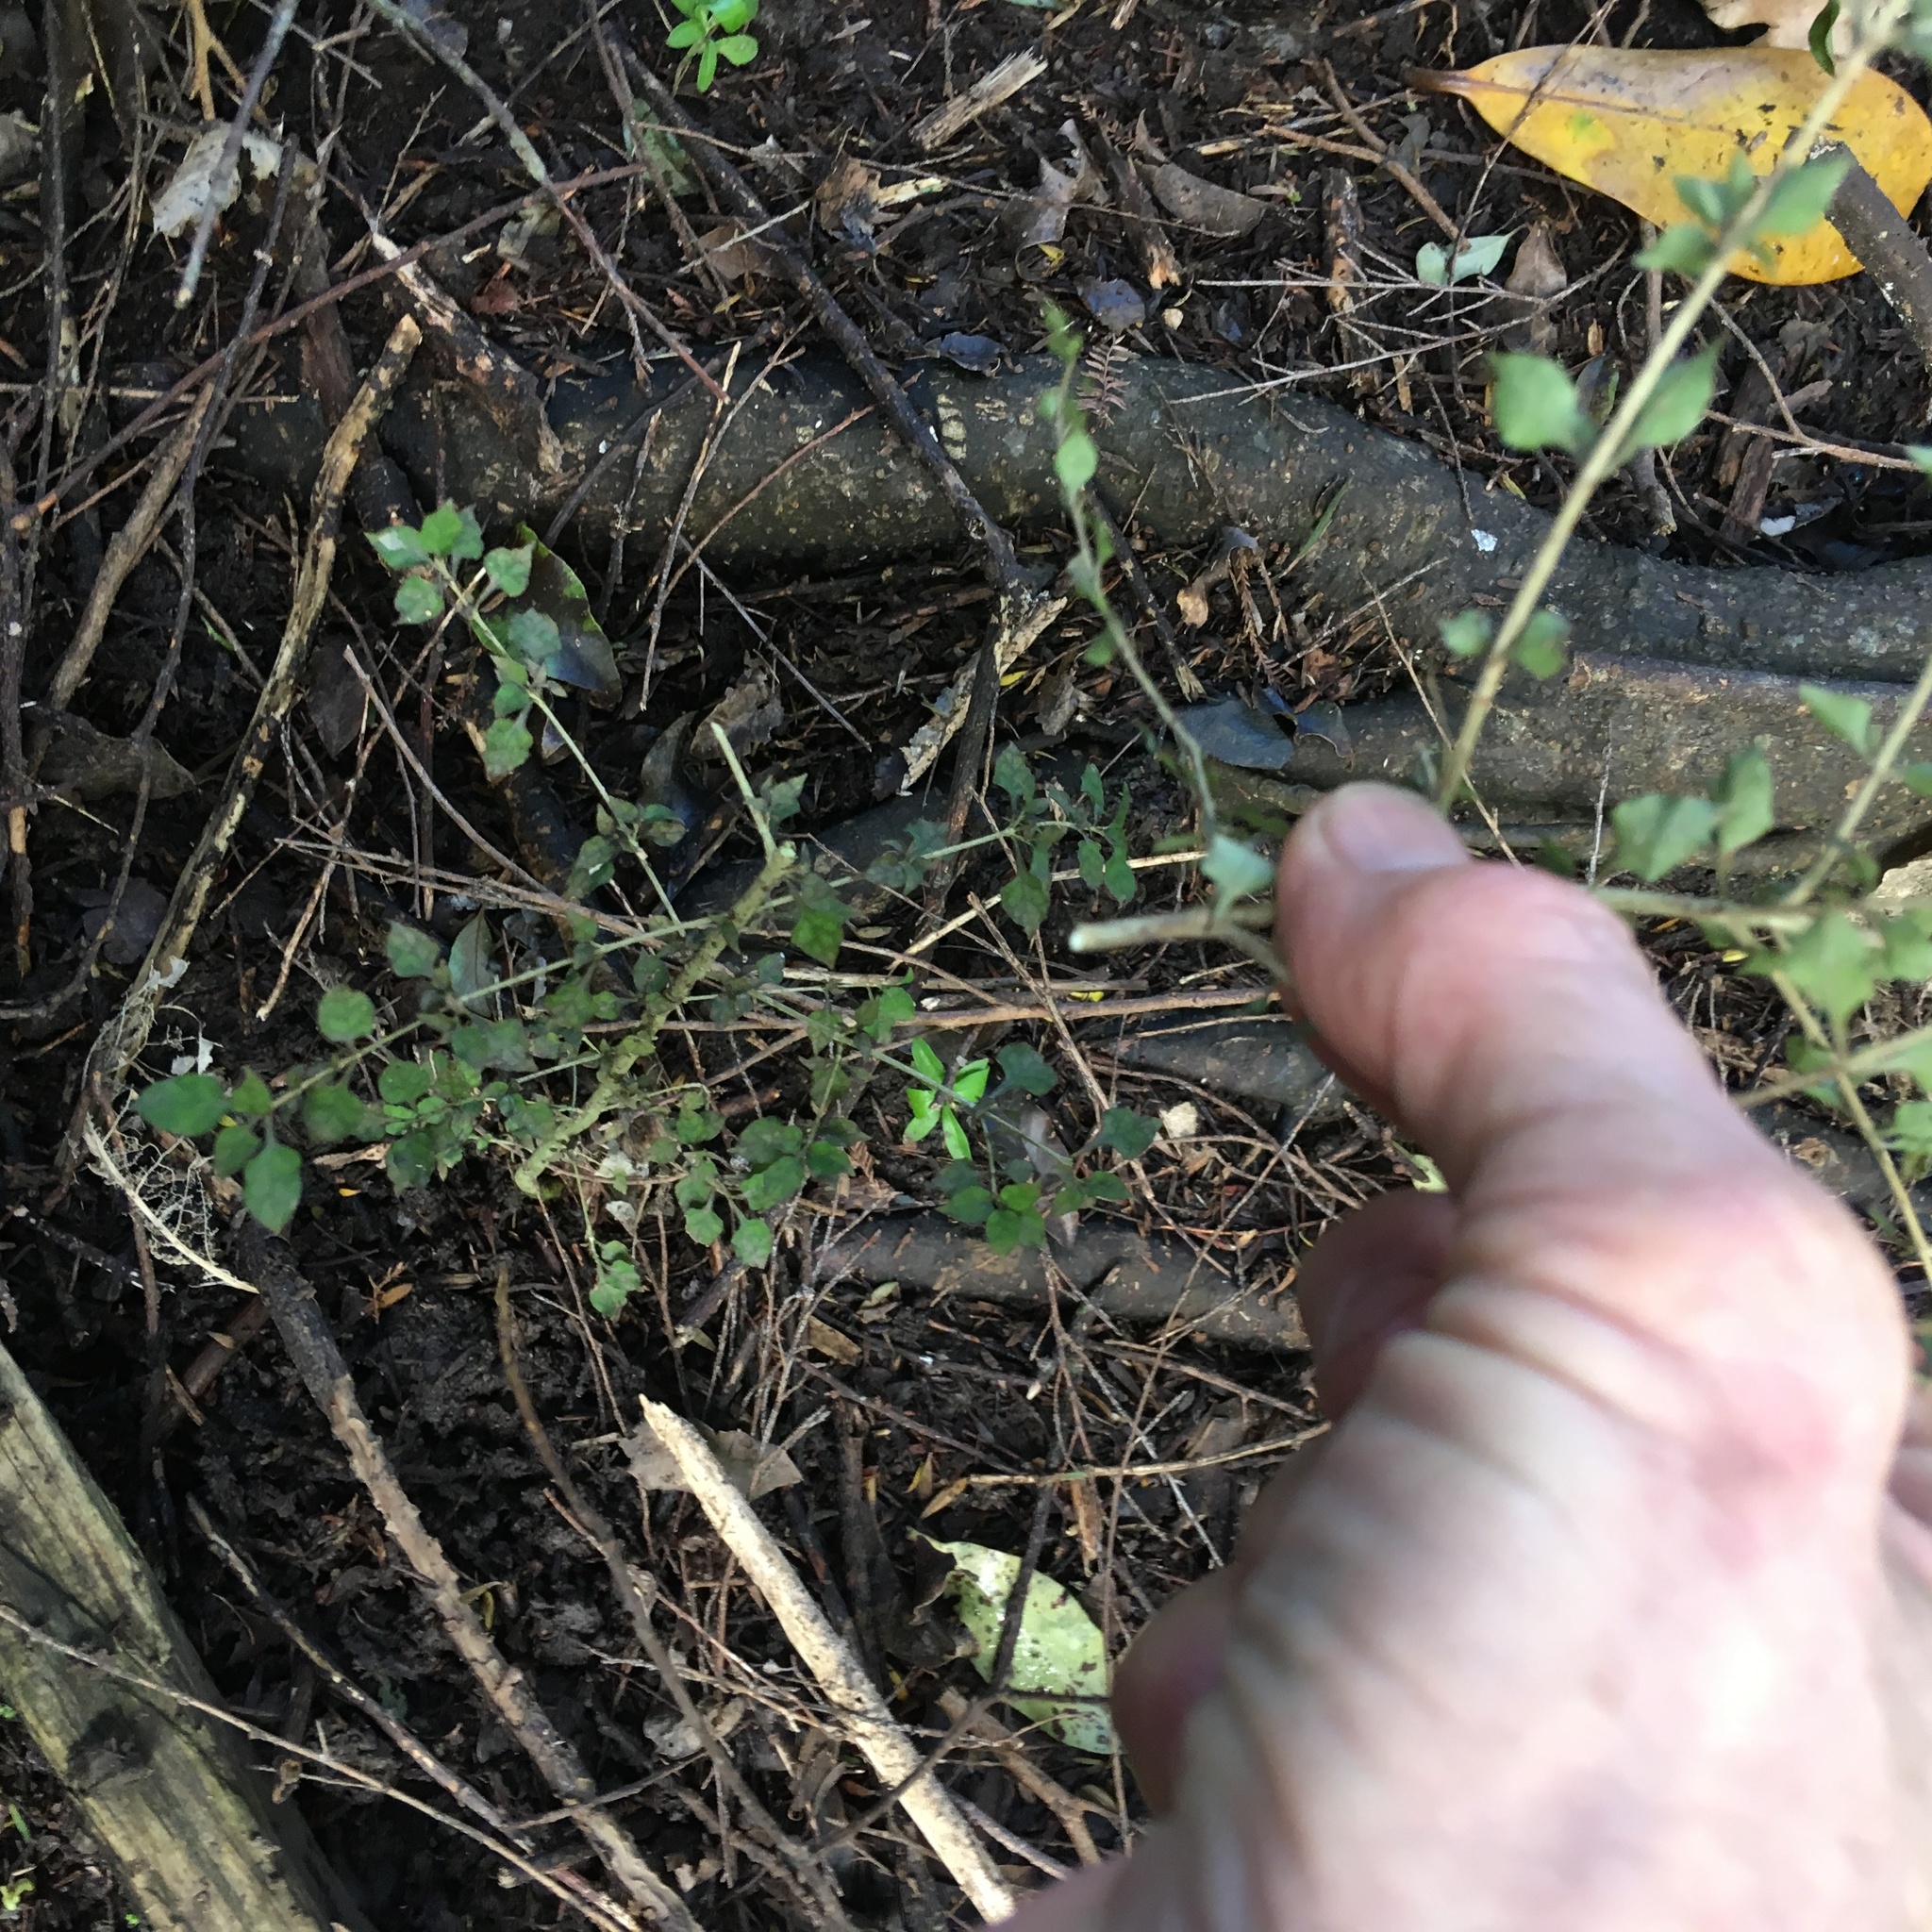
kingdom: Plantae
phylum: Tracheophyta
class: Magnoliopsida
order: Gentianales
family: Rubiaceae
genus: Coprosma
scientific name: Coprosma areolata
